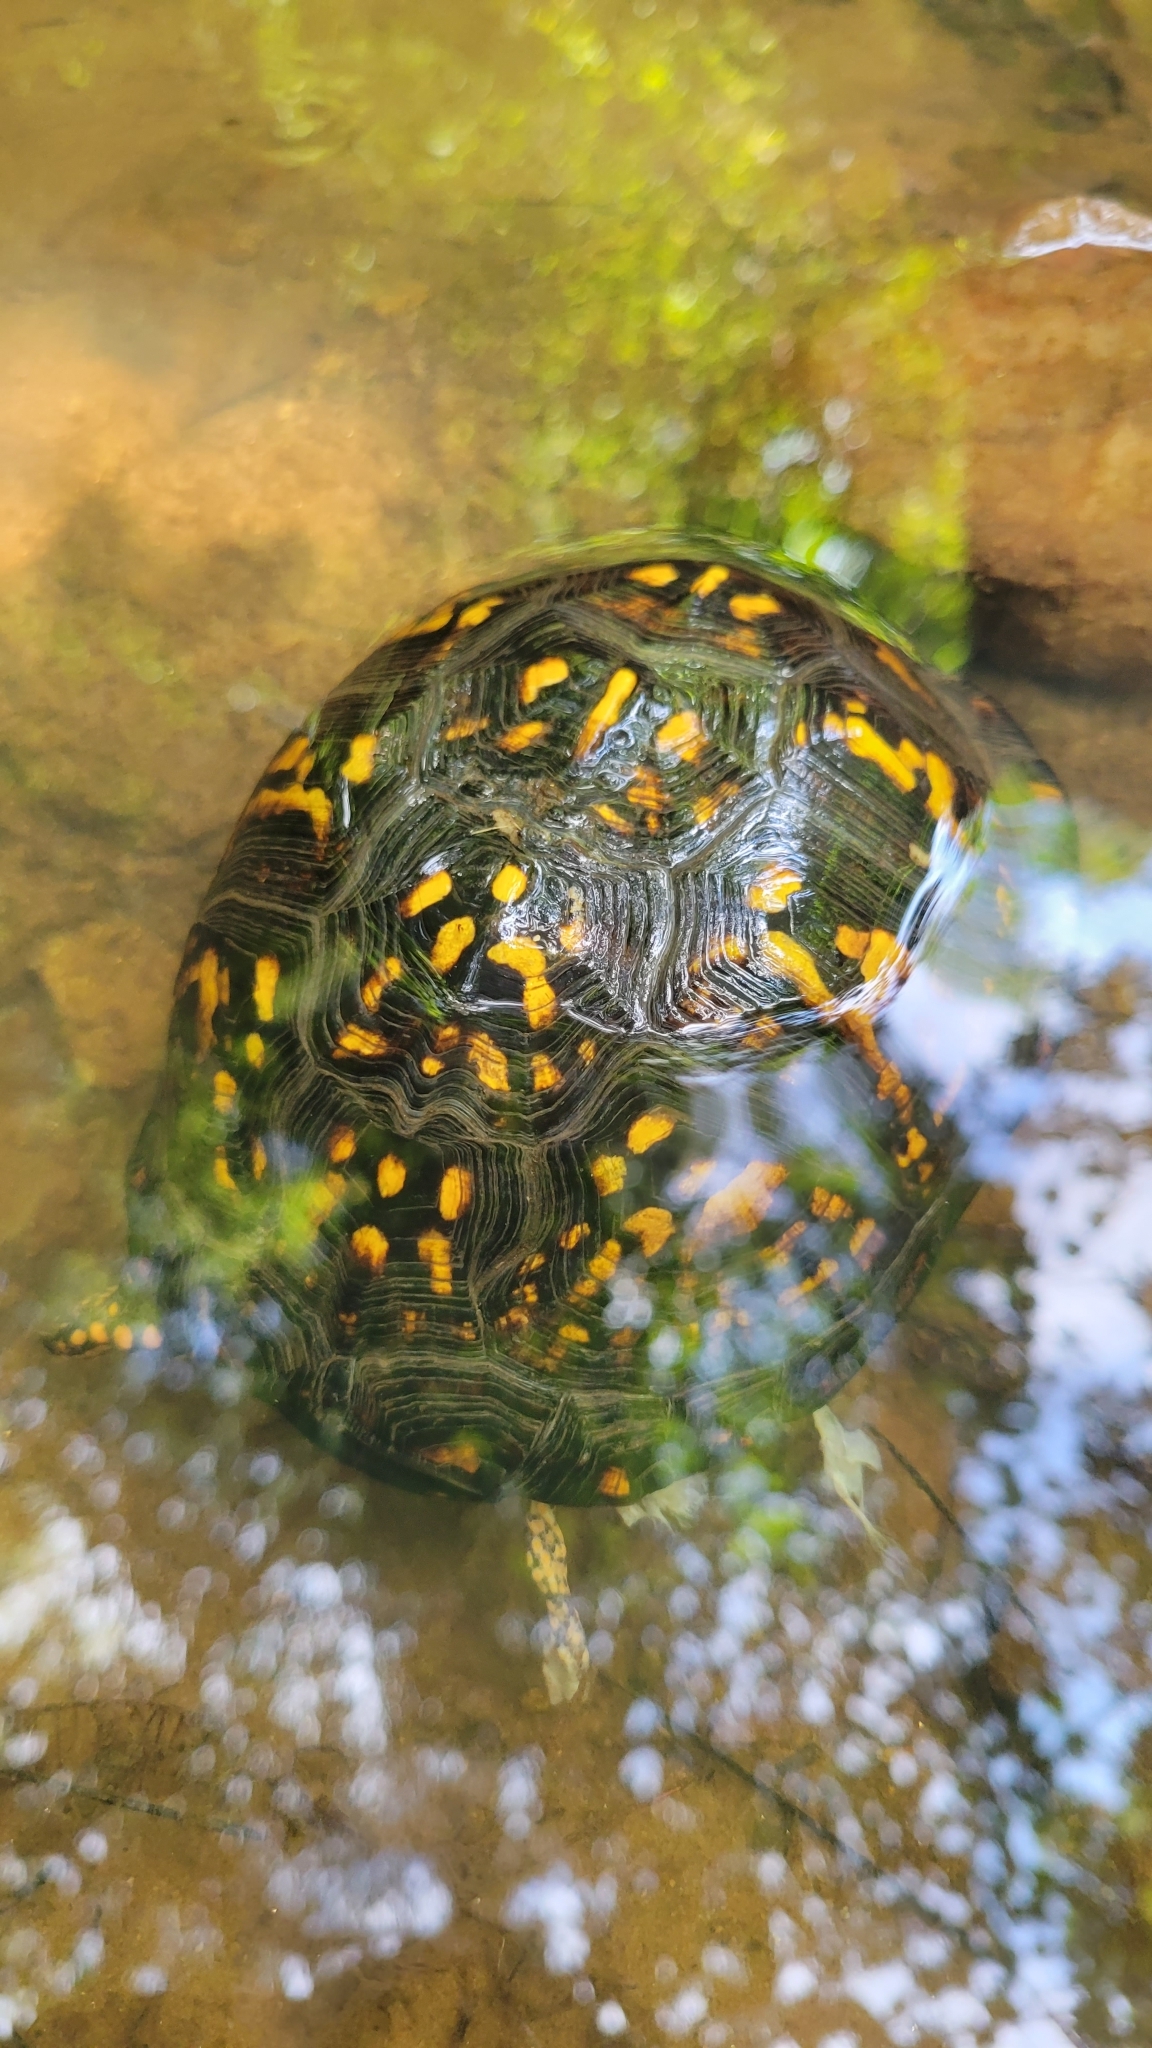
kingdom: Animalia
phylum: Chordata
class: Testudines
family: Emydidae
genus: Terrapene
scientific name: Terrapene carolina
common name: Common box turtle
